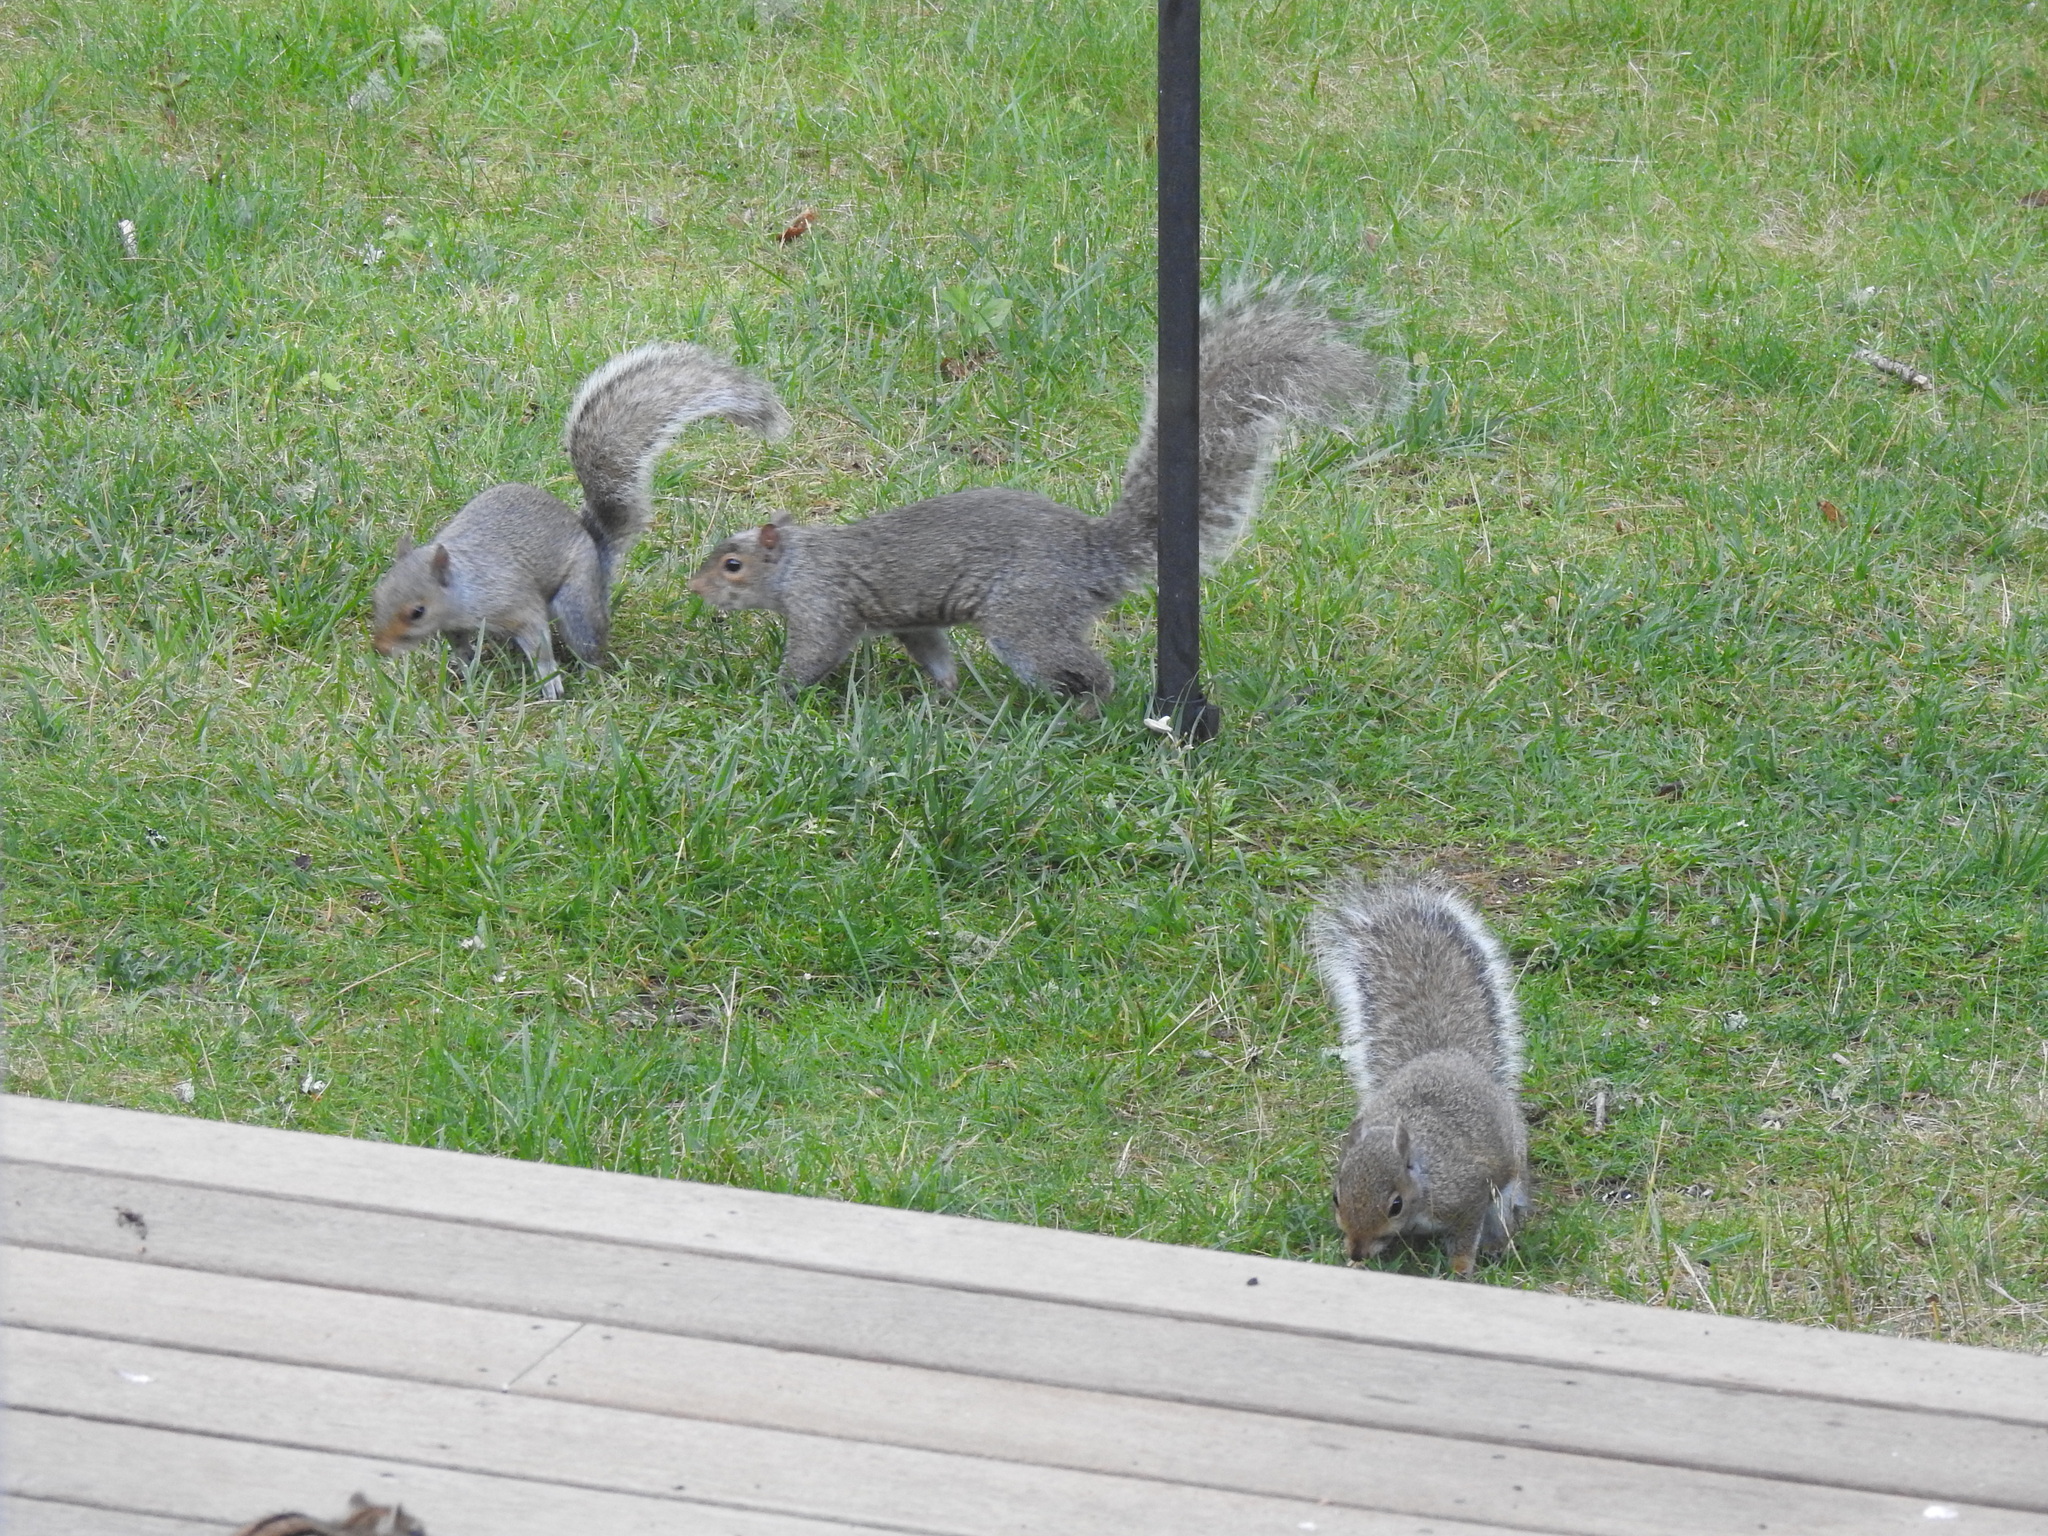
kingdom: Animalia
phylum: Chordata
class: Mammalia
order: Rodentia
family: Sciuridae
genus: Sciurus
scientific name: Sciurus carolinensis
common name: Eastern gray squirrel
